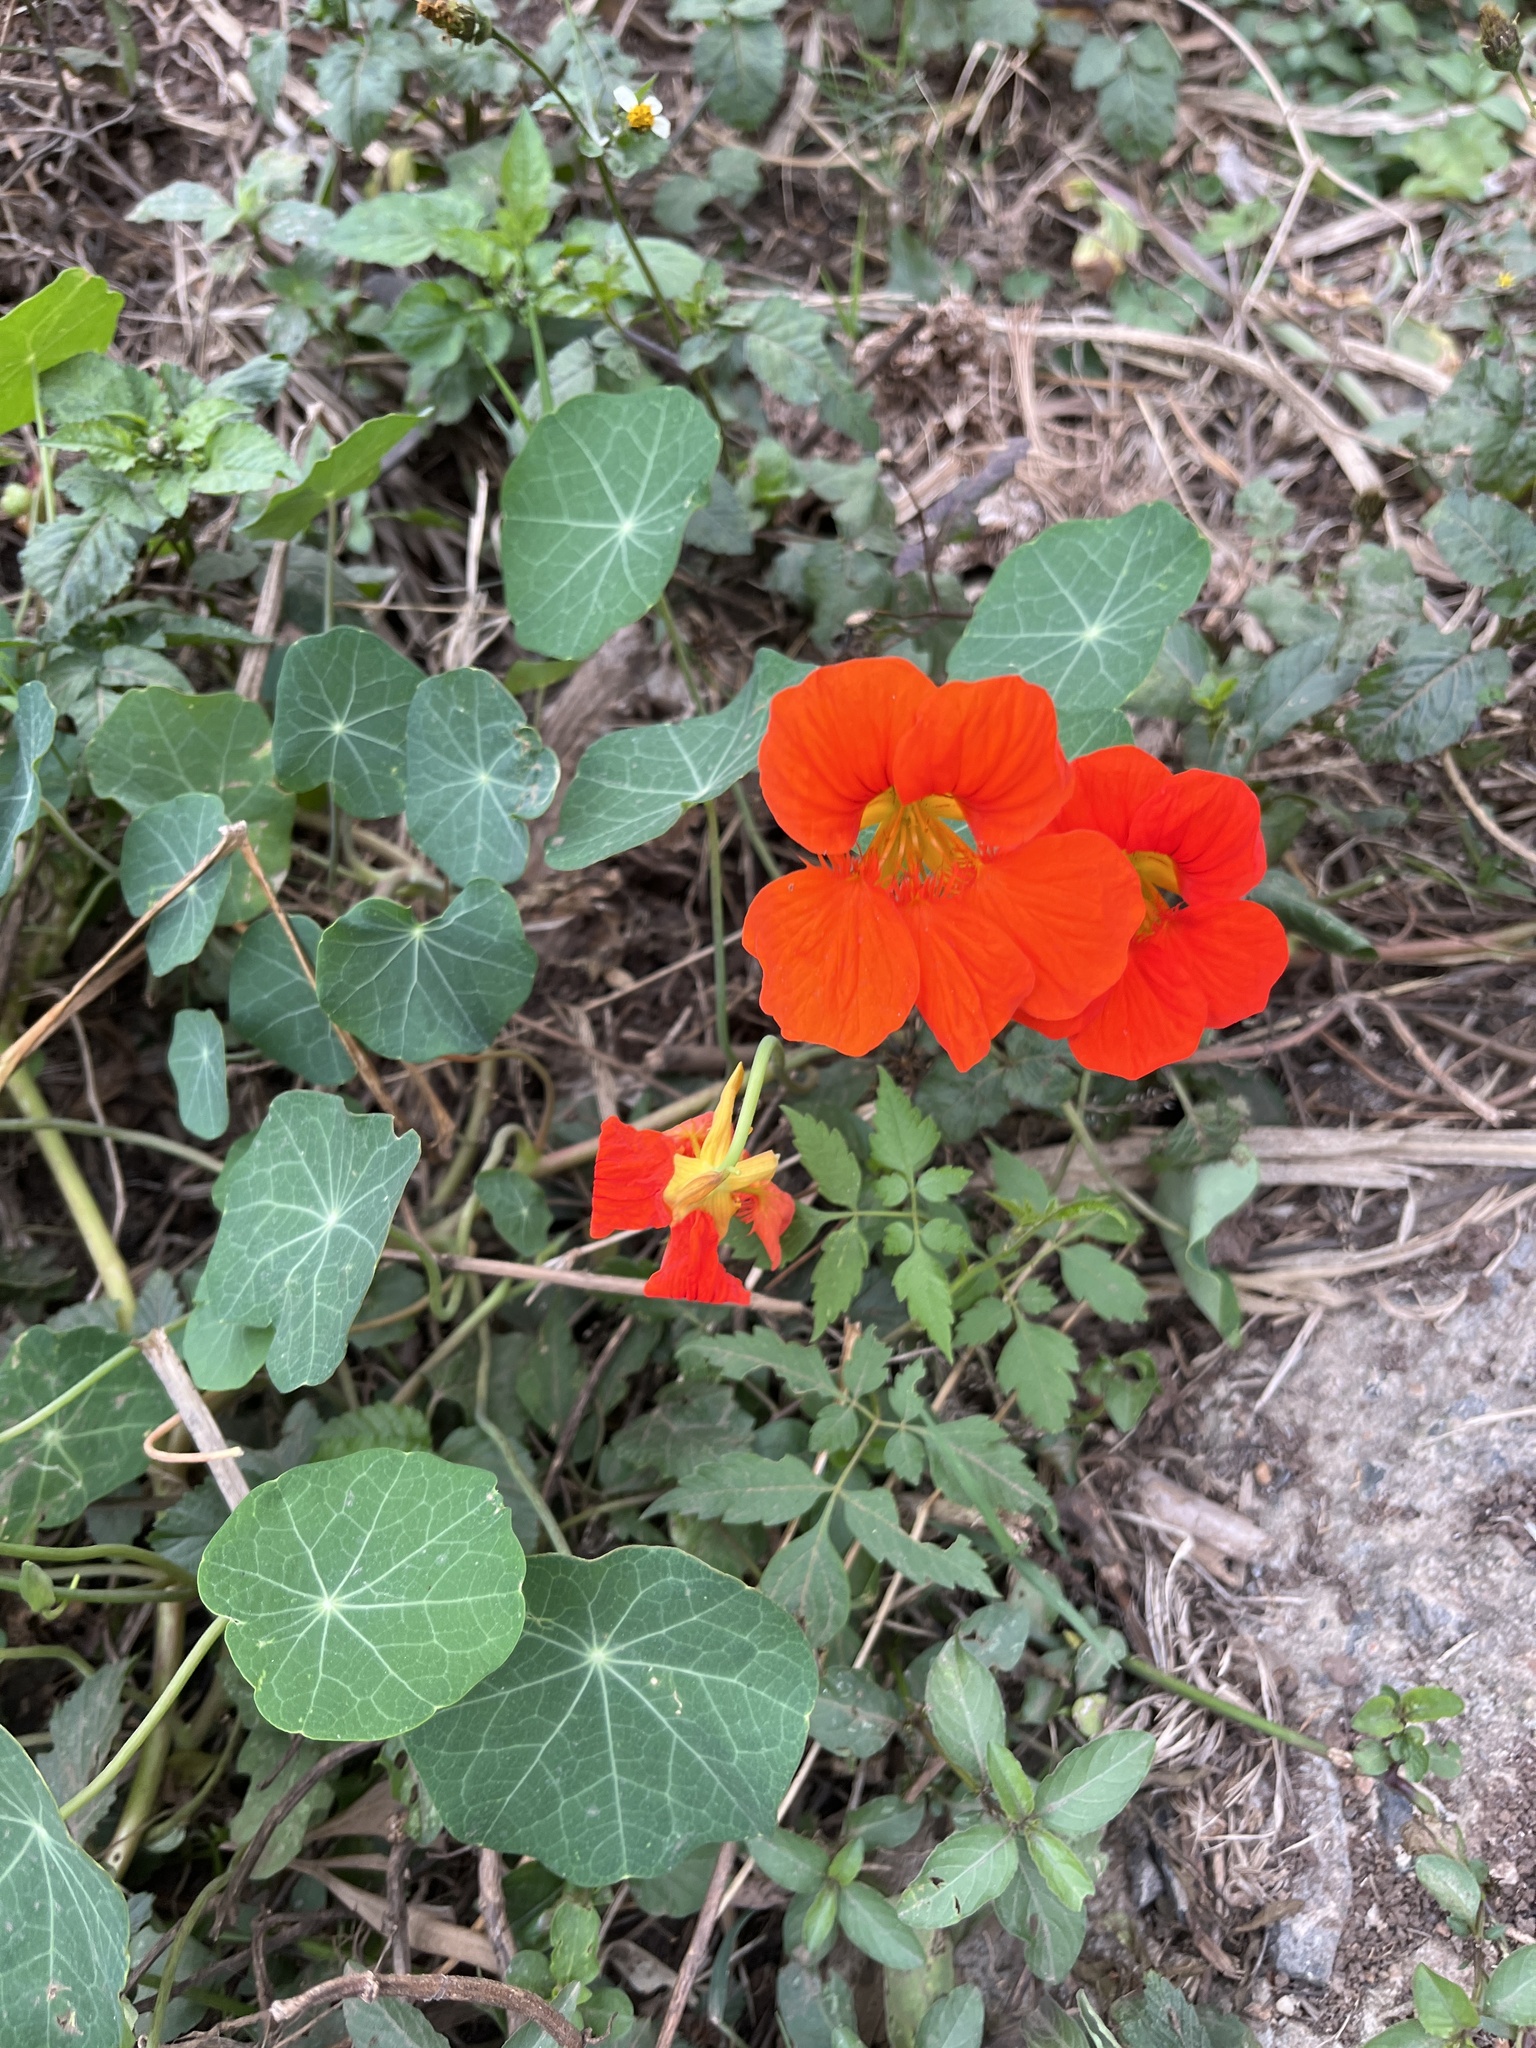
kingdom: Plantae
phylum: Tracheophyta
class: Magnoliopsida
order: Brassicales
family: Tropaeolaceae
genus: Tropaeolum
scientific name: Tropaeolum majus
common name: Nasturtium
